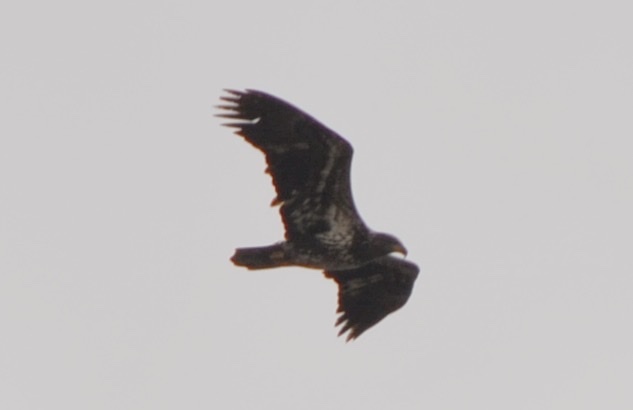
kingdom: Animalia
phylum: Chordata
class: Aves
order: Accipitriformes
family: Accipitridae
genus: Haliaeetus
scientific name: Haliaeetus leucocephalus
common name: Bald eagle
